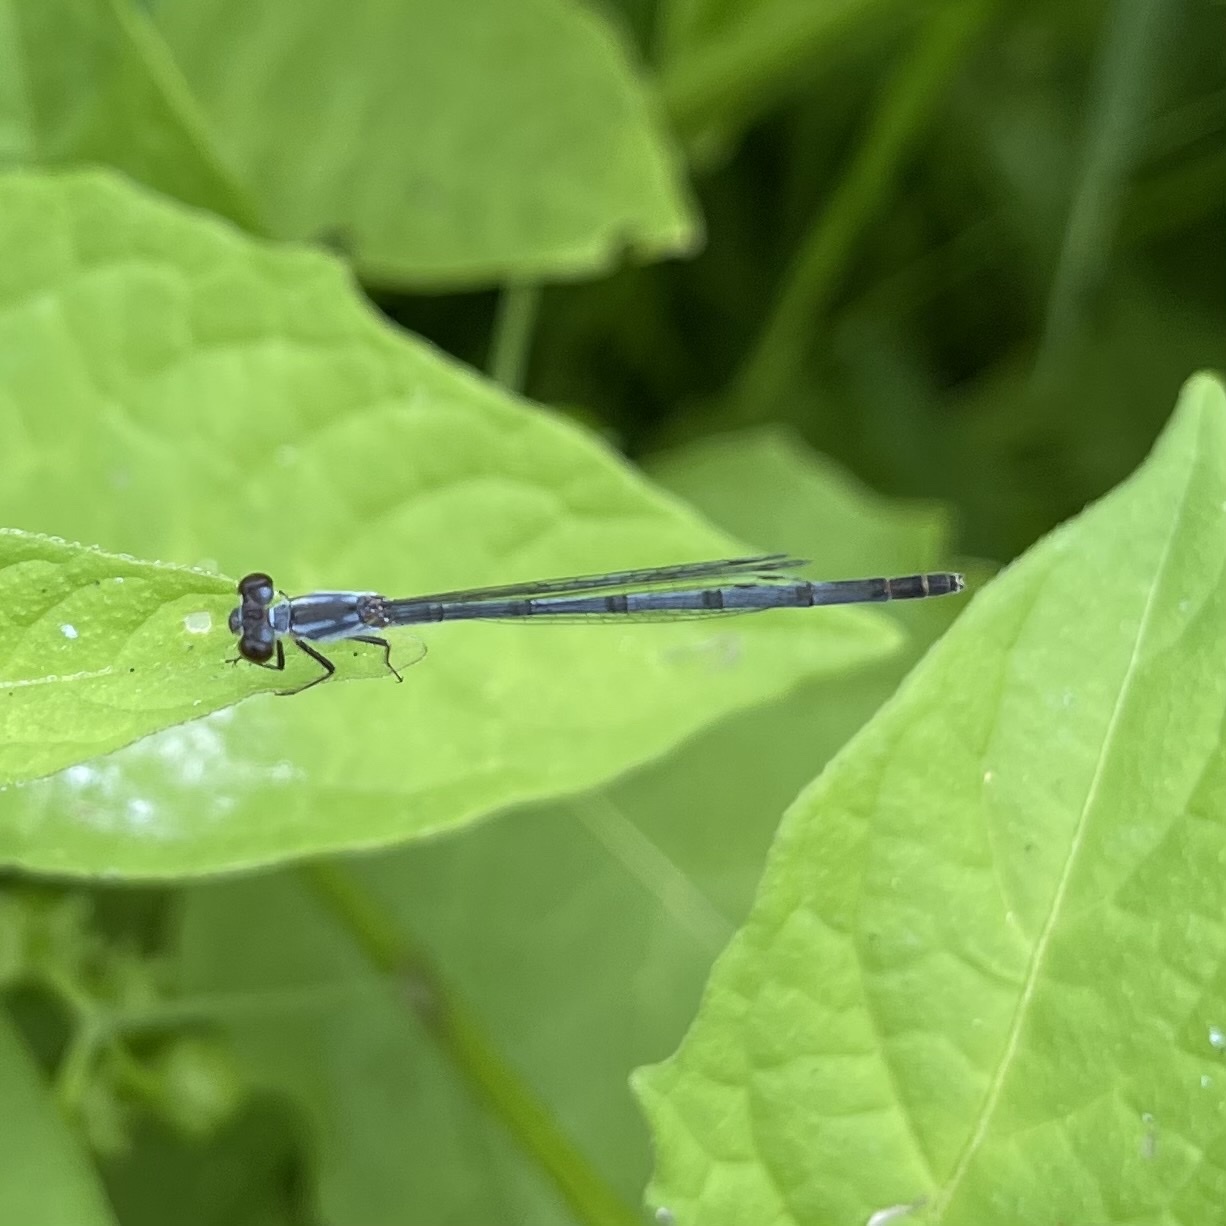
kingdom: Animalia
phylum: Arthropoda
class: Insecta
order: Odonata
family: Coenagrionidae
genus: Ischnura
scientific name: Ischnura posita
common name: Fragile forktail
